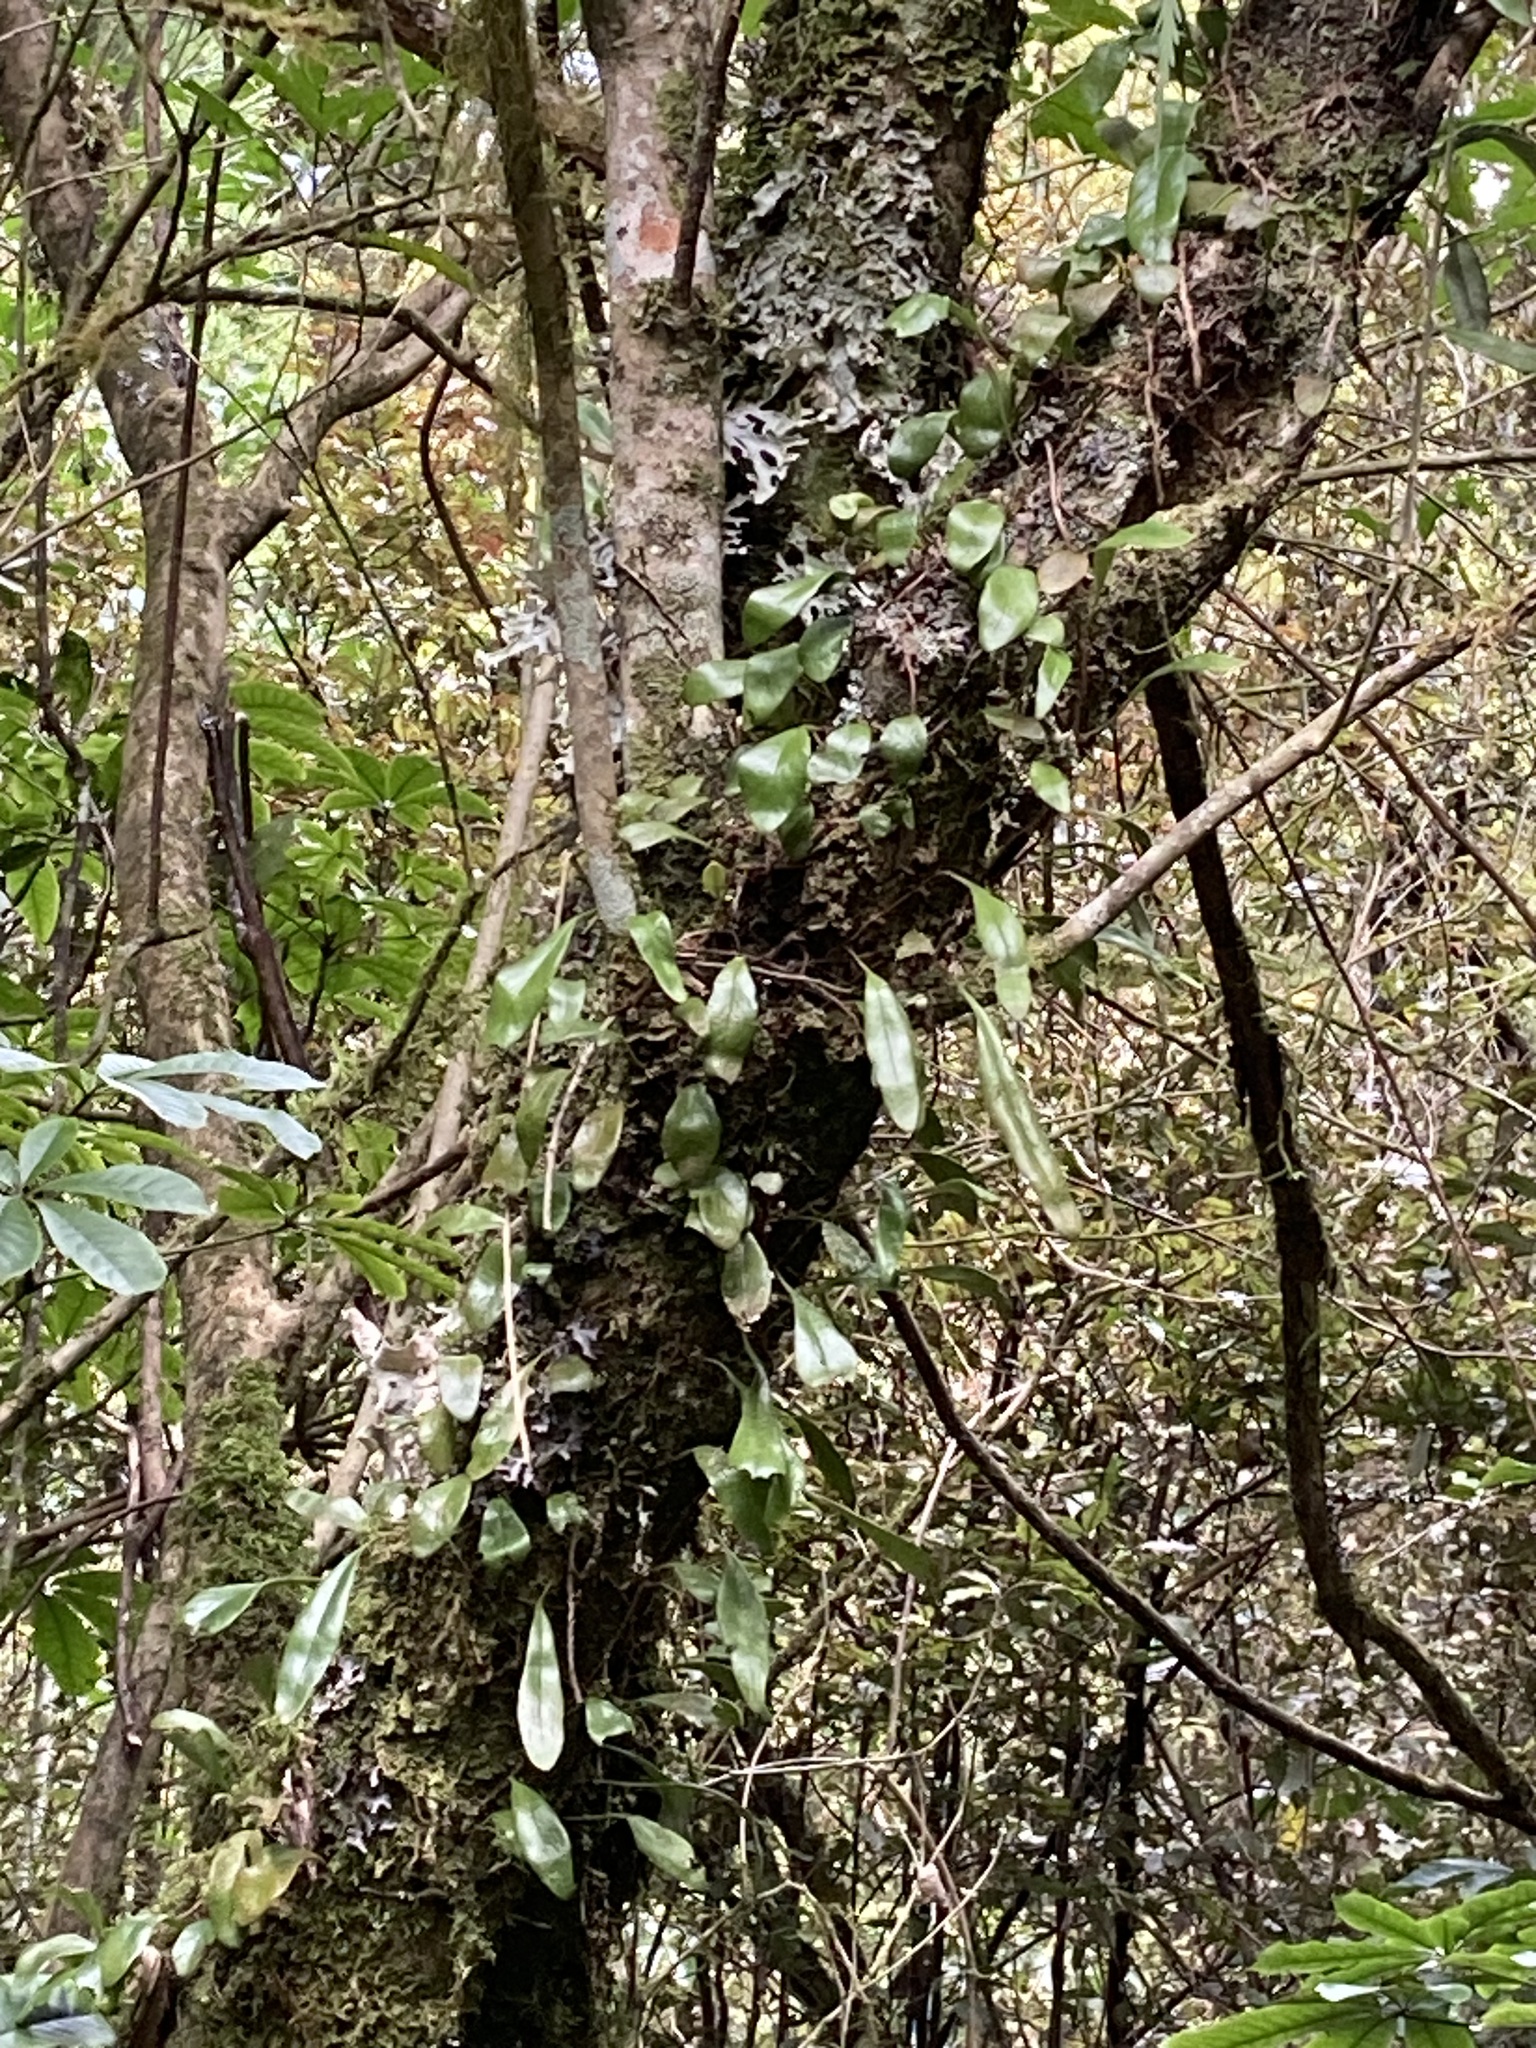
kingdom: Plantae
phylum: Tracheophyta
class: Polypodiopsida
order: Polypodiales
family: Polypodiaceae
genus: Pyrrosia
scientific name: Pyrrosia eleagnifolia
